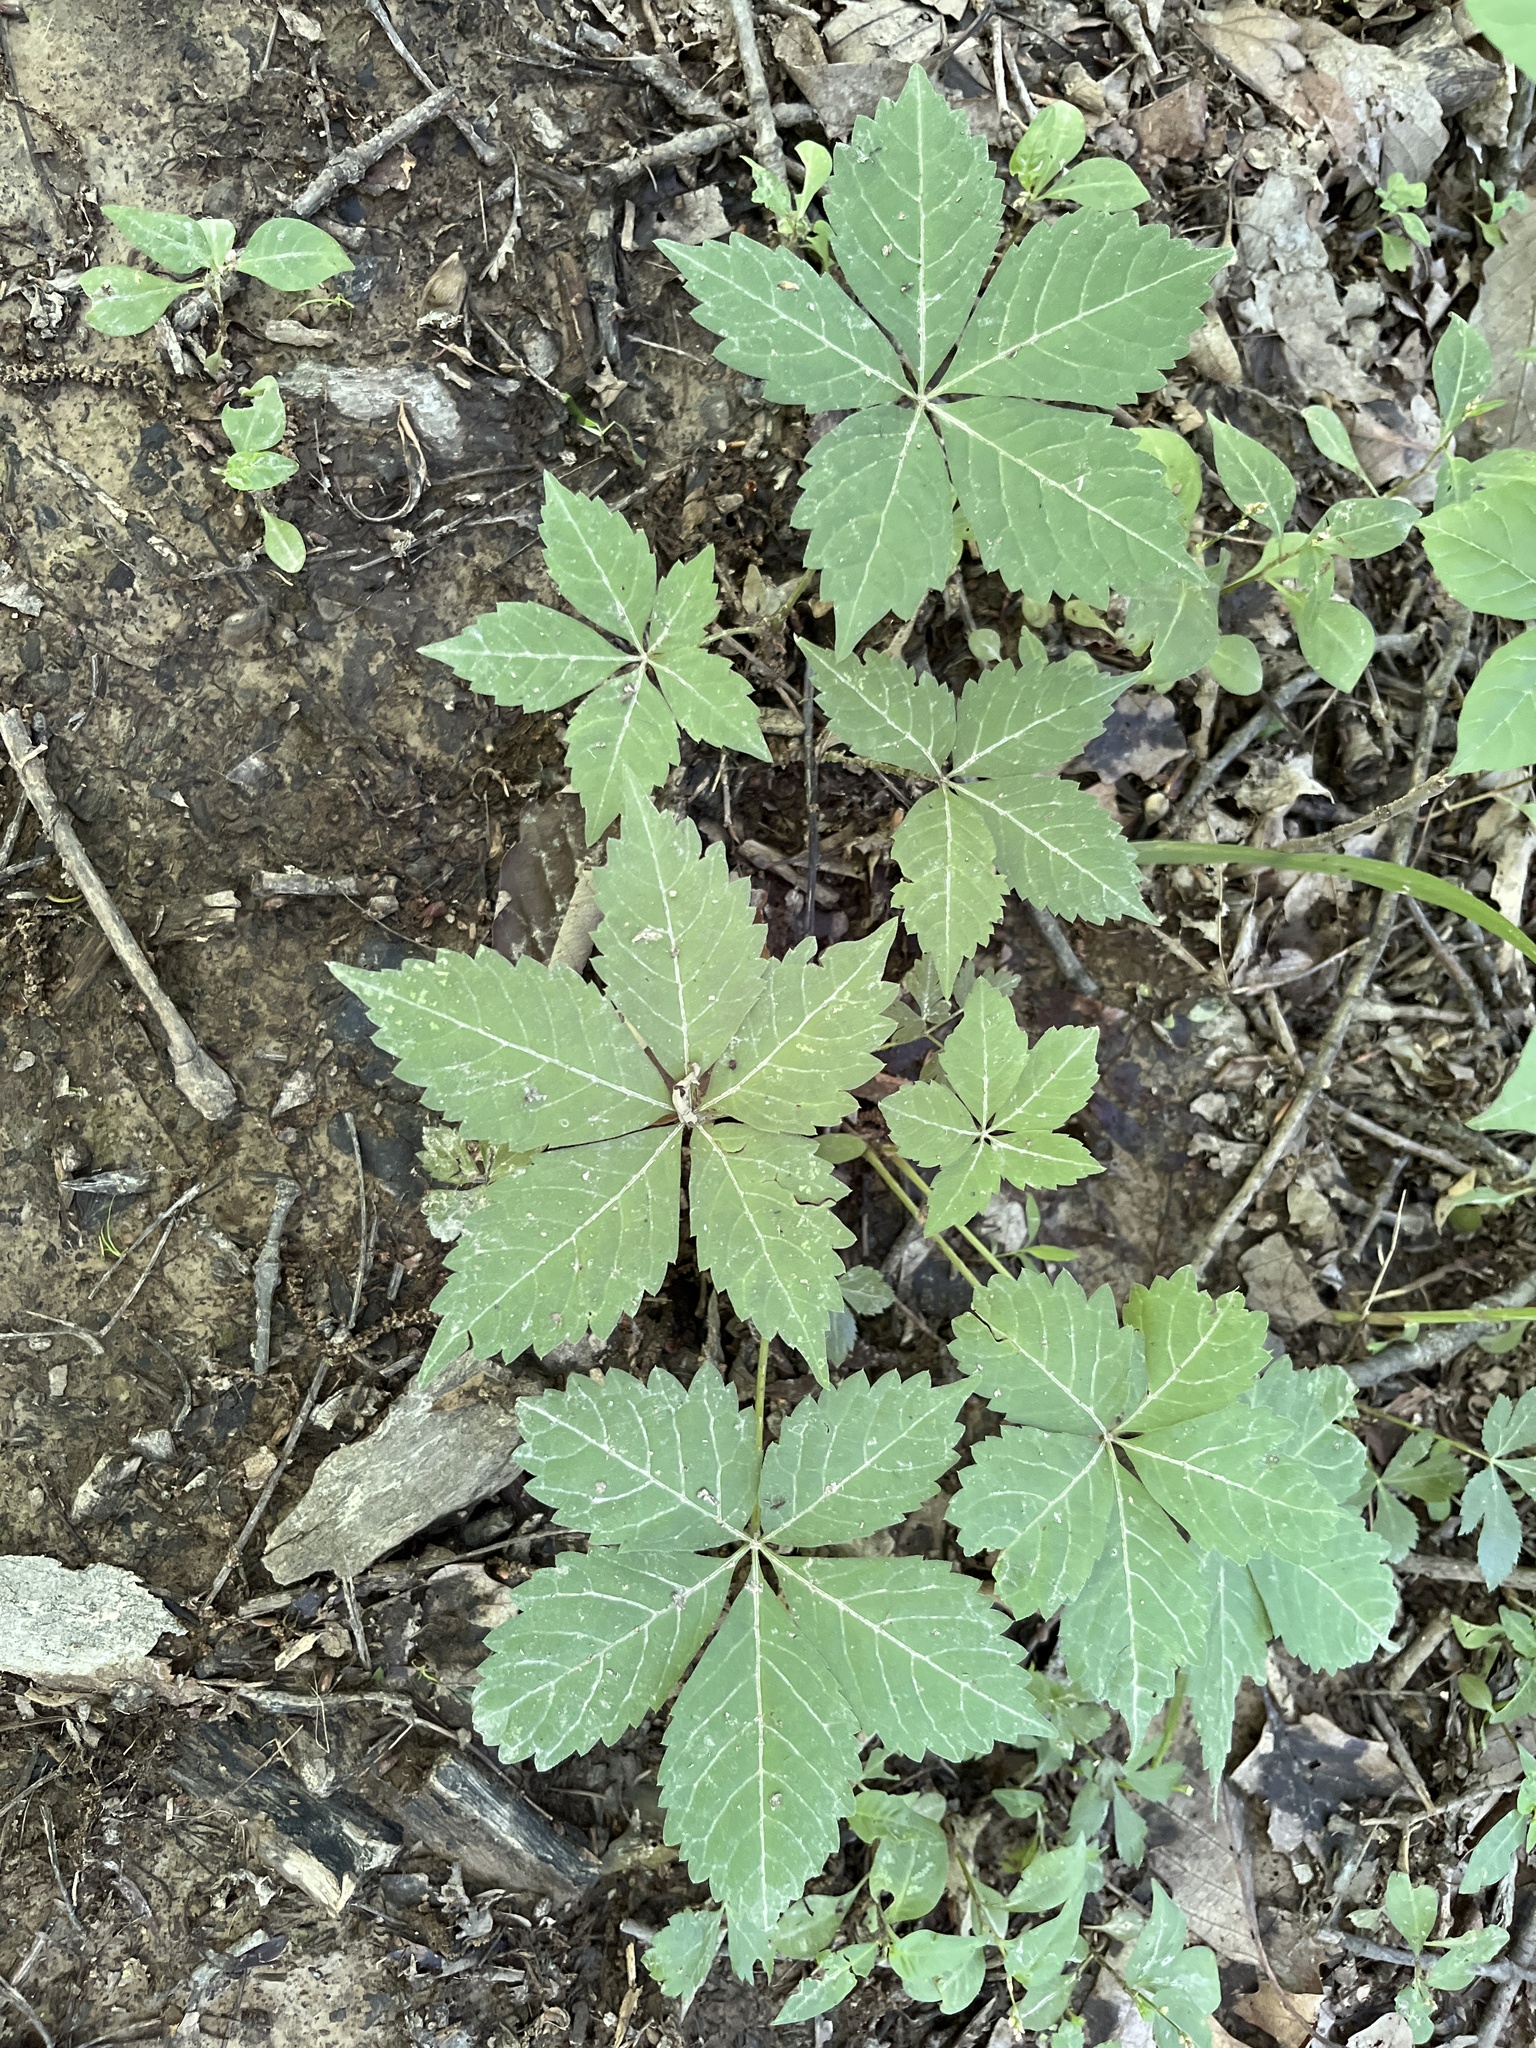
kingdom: Plantae
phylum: Tracheophyta
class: Magnoliopsida
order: Vitales
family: Vitaceae
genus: Parthenocissus
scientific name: Parthenocissus quinquefolia
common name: Virginia-creeper
